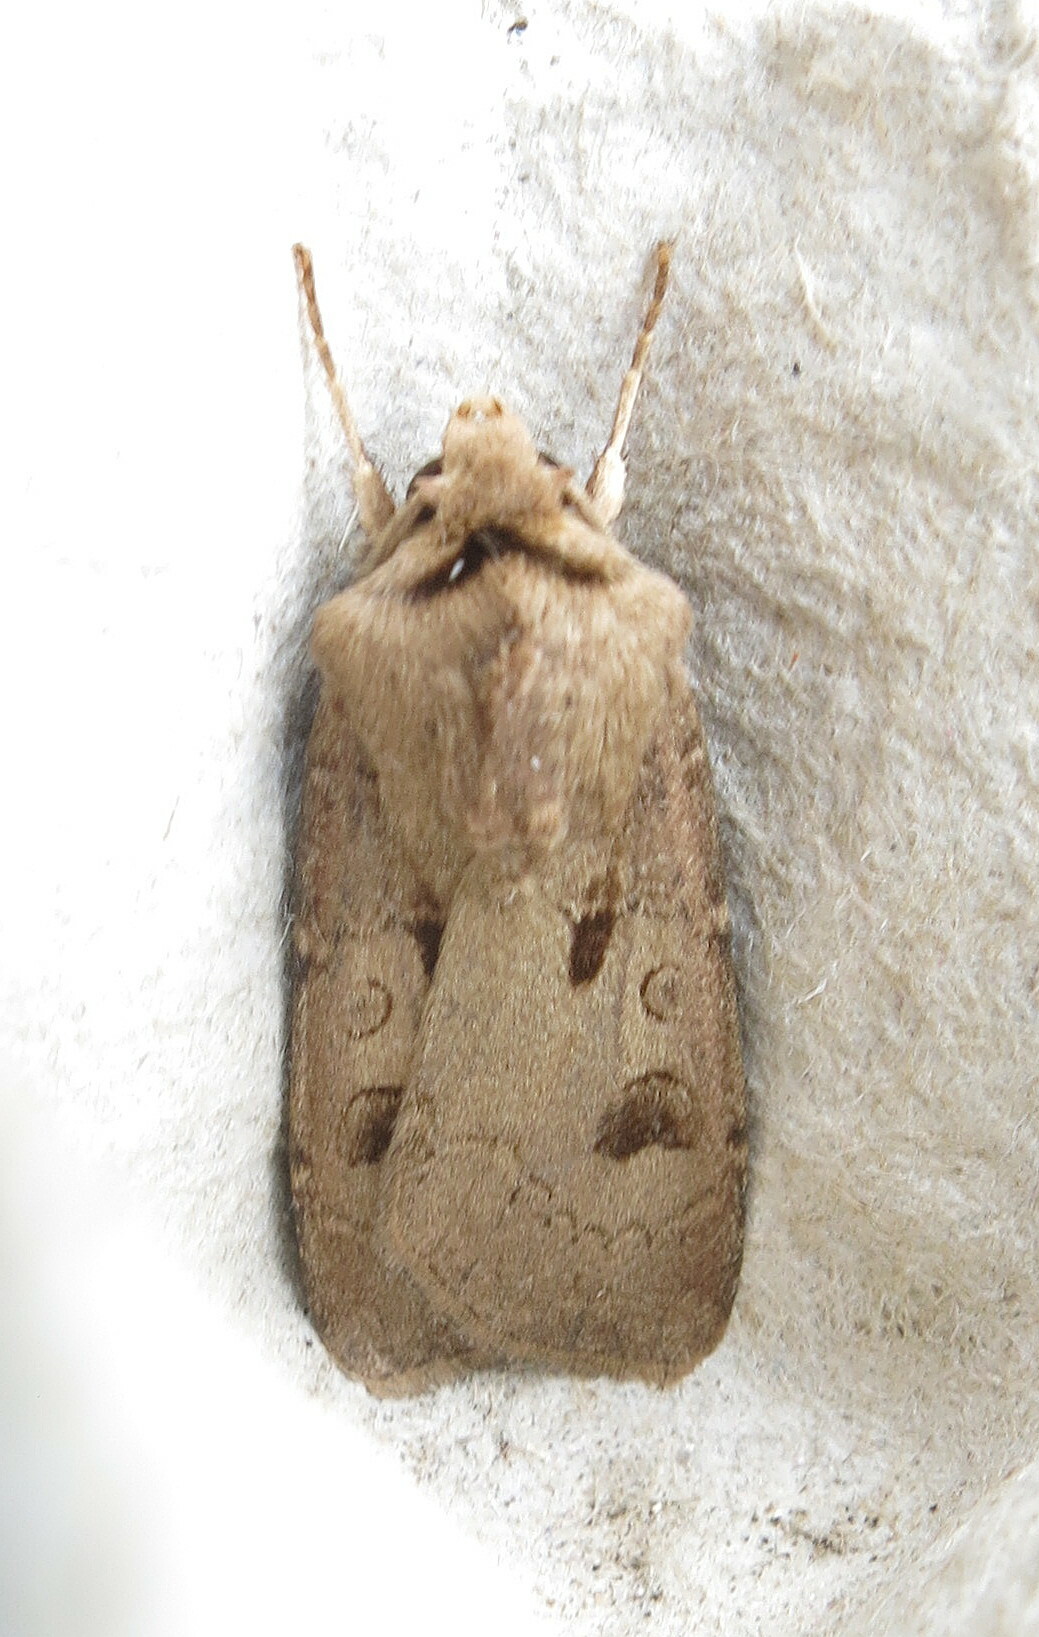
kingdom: Animalia
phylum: Arthropoda
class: Insecta
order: Lepidoptera
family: Noctuidae
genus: Acronicta
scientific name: Acronicta megacephala
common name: Poplar grey
